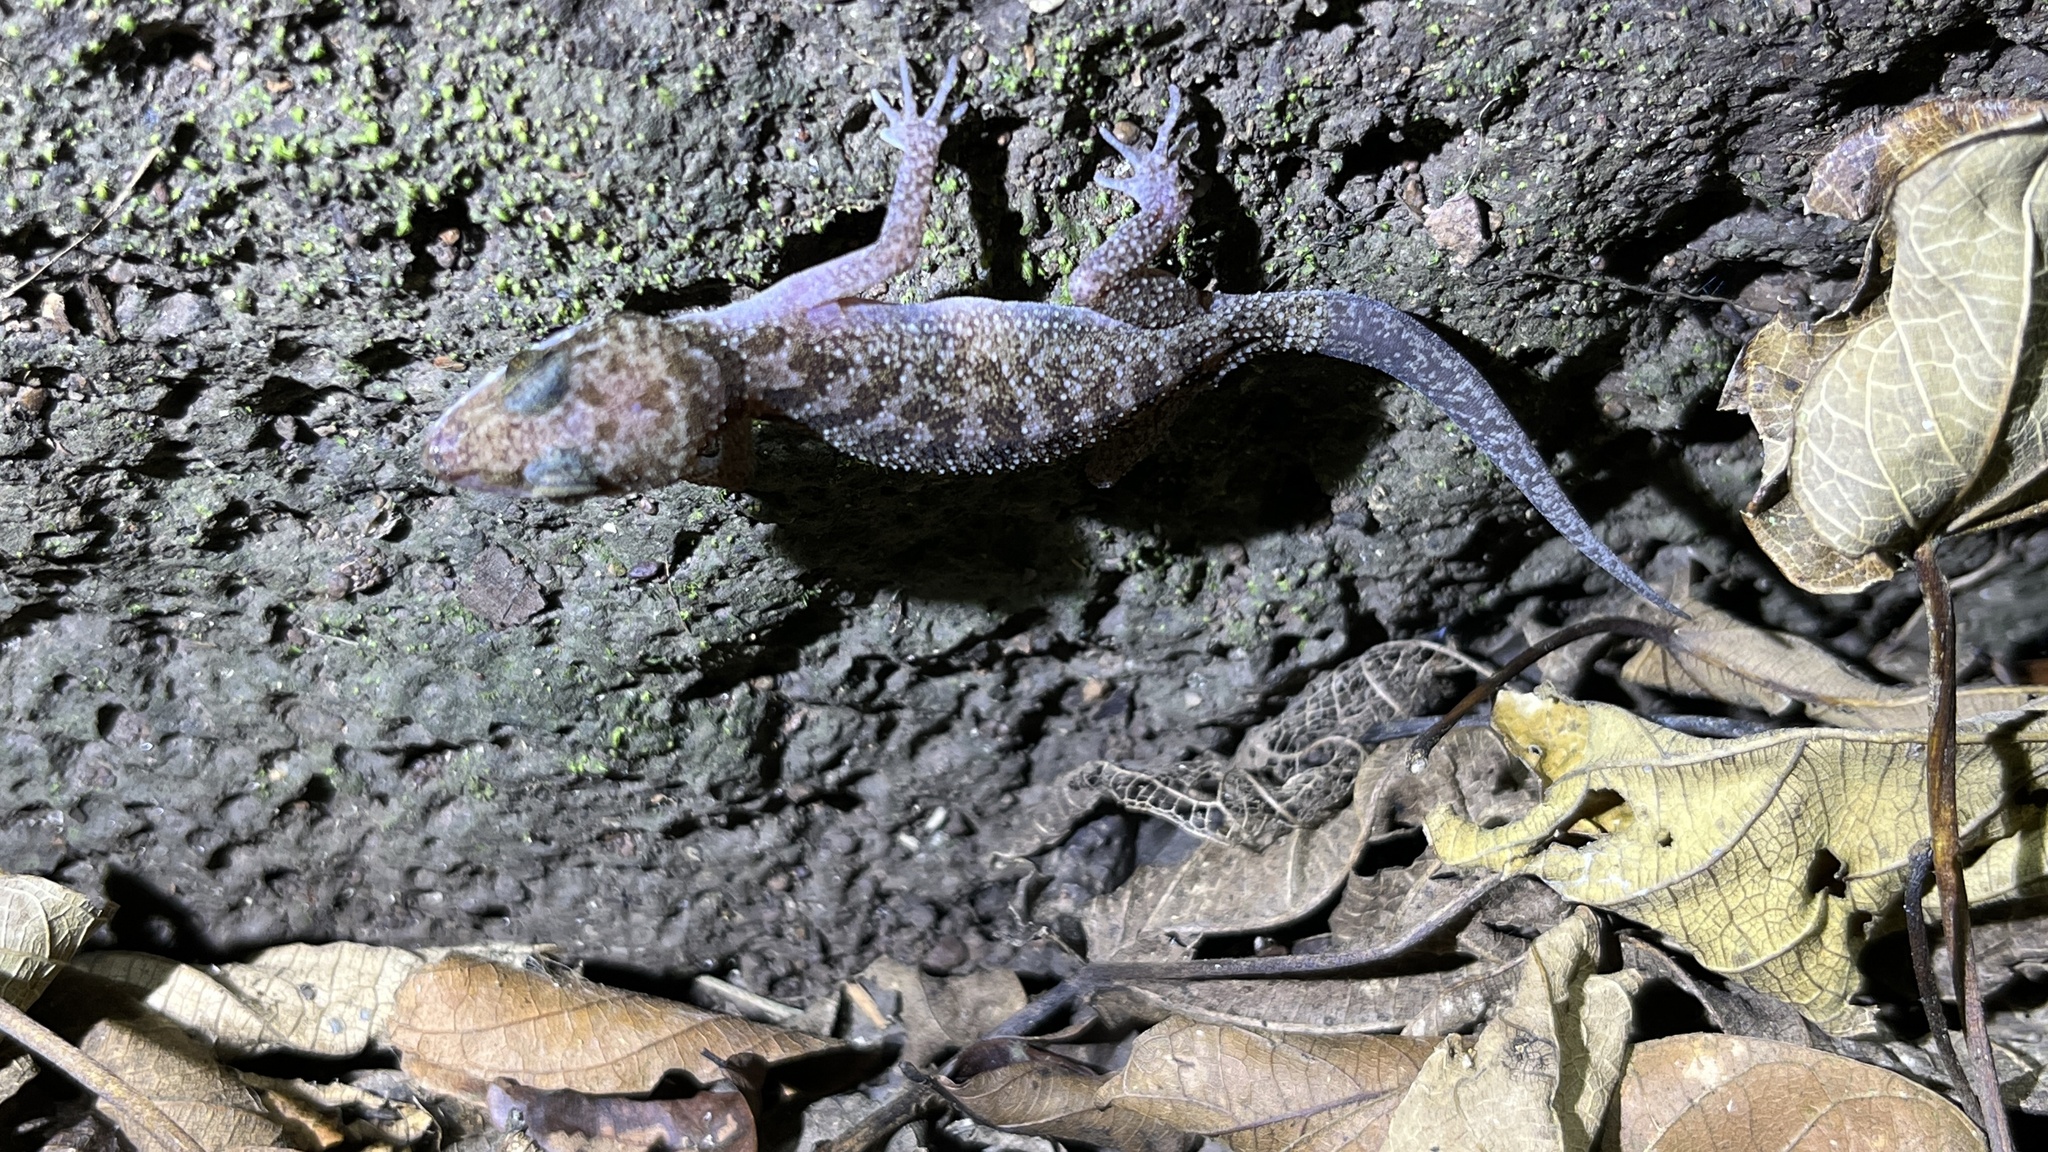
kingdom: Animalia
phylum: Chordata
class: Squamata
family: Gekkonidae
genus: Cyrtodactylus
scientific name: Cyrtodactylus cattienensis
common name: Cat tien bent-toed gecko
